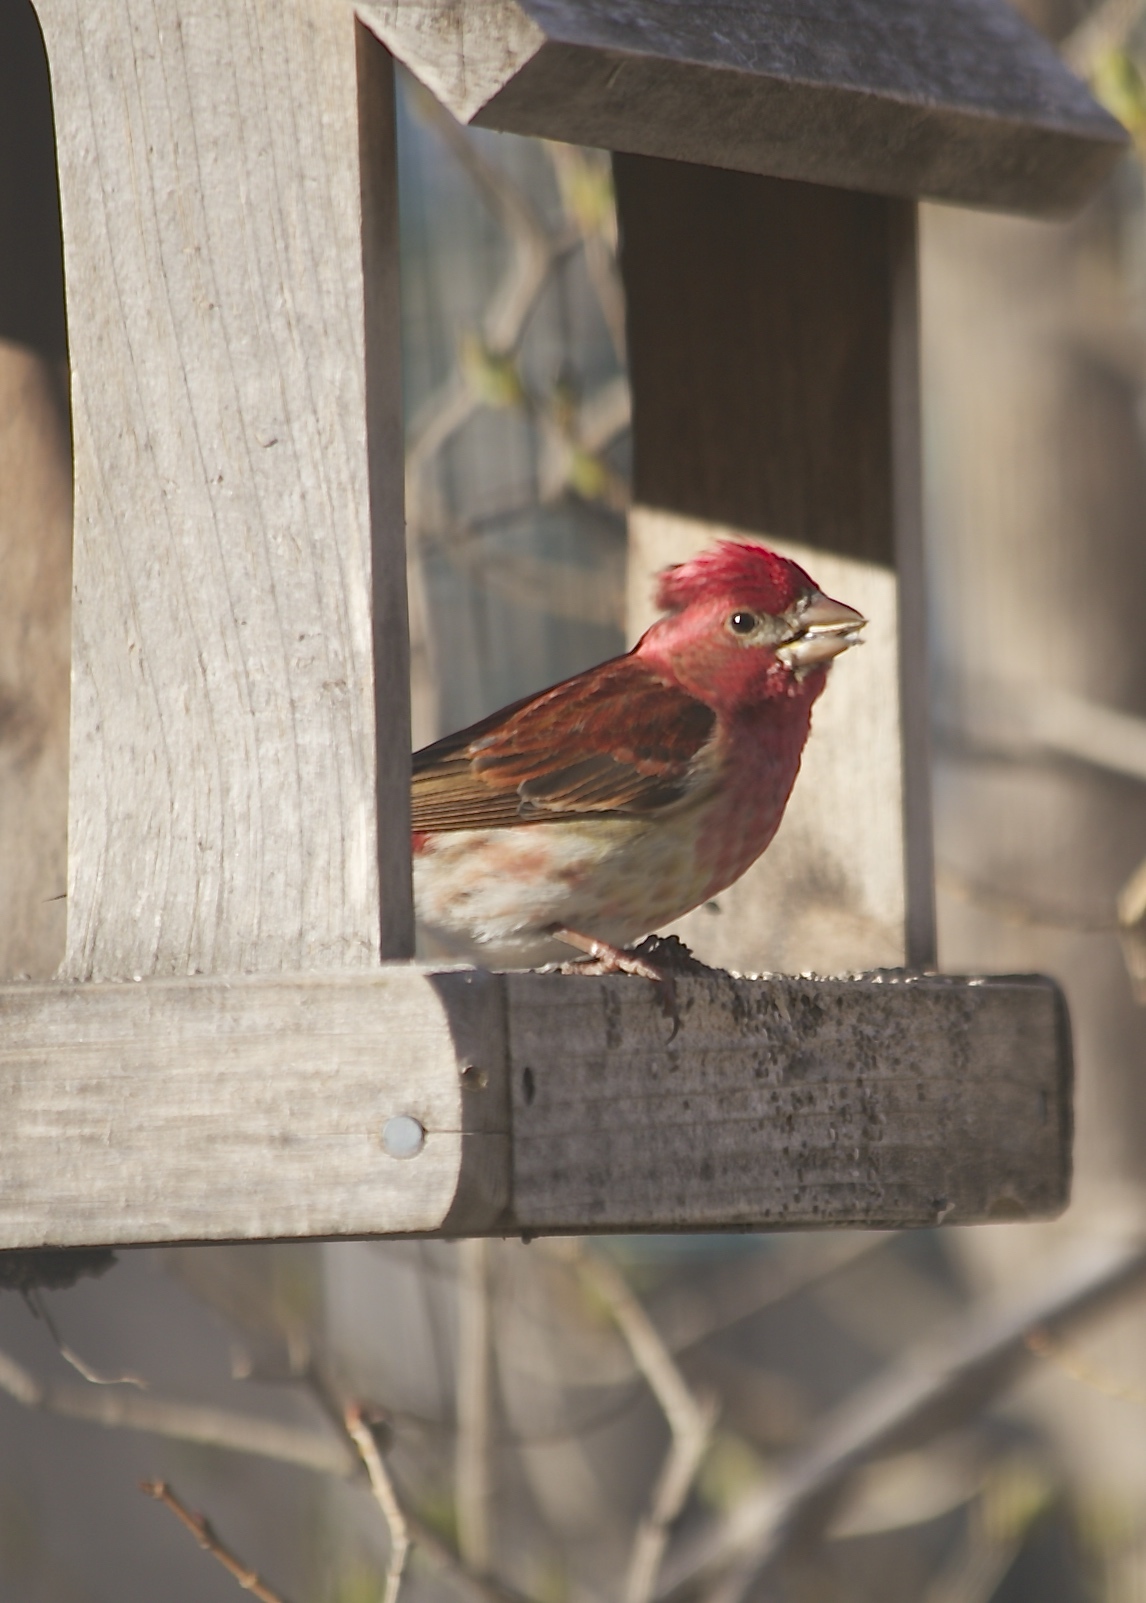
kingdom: Animalia
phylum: Chordata
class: Aves
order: Passeriformes
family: Fringillidae
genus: Haemorhous
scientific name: Haemorhous purpureus
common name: Purple finch
